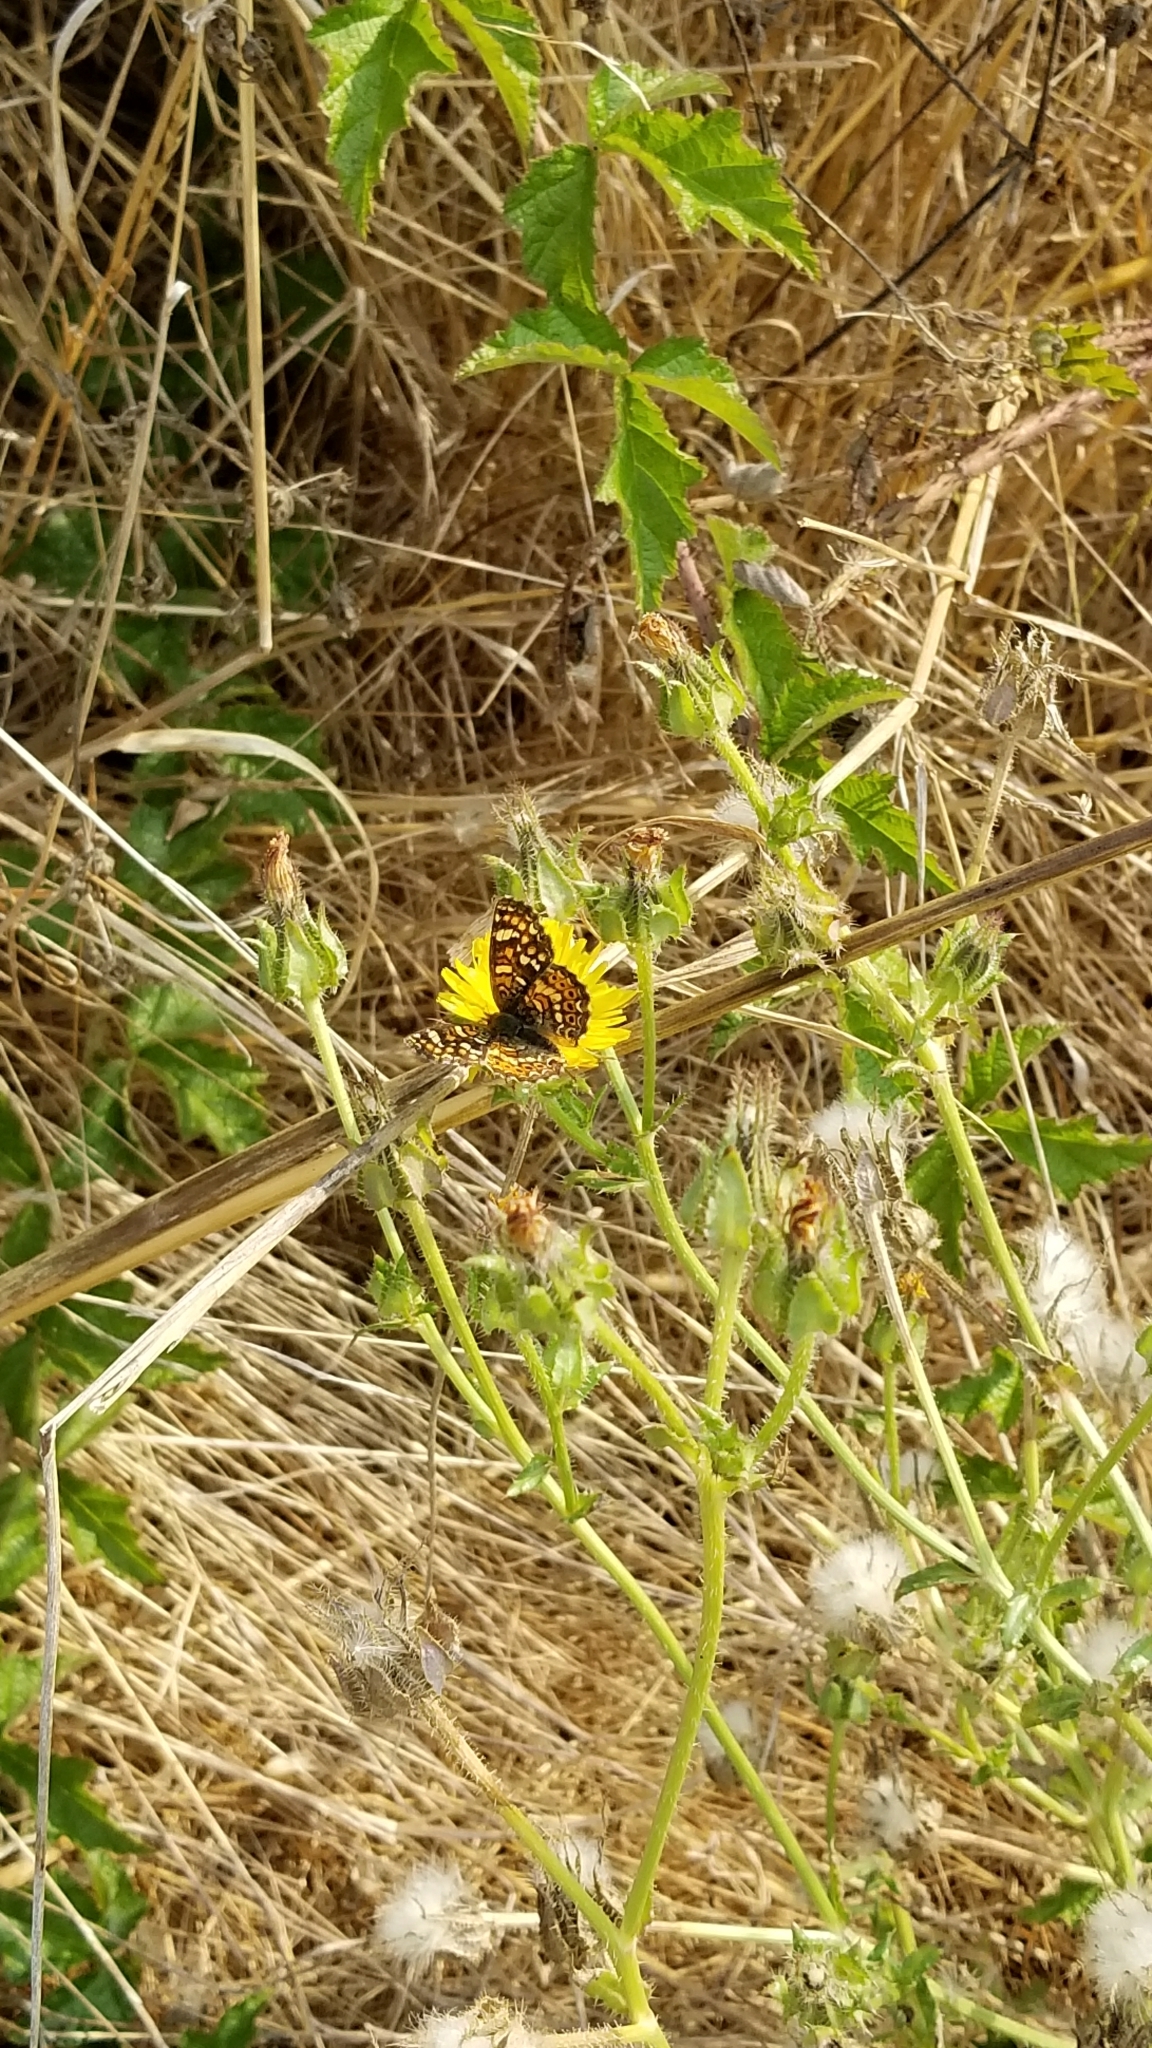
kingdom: Animalia
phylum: Arthropoda
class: Insecta
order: Lepidoptera
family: Nymphalidae
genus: Phyciodes
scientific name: Phyciodes tharos
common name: Pearl crescent
